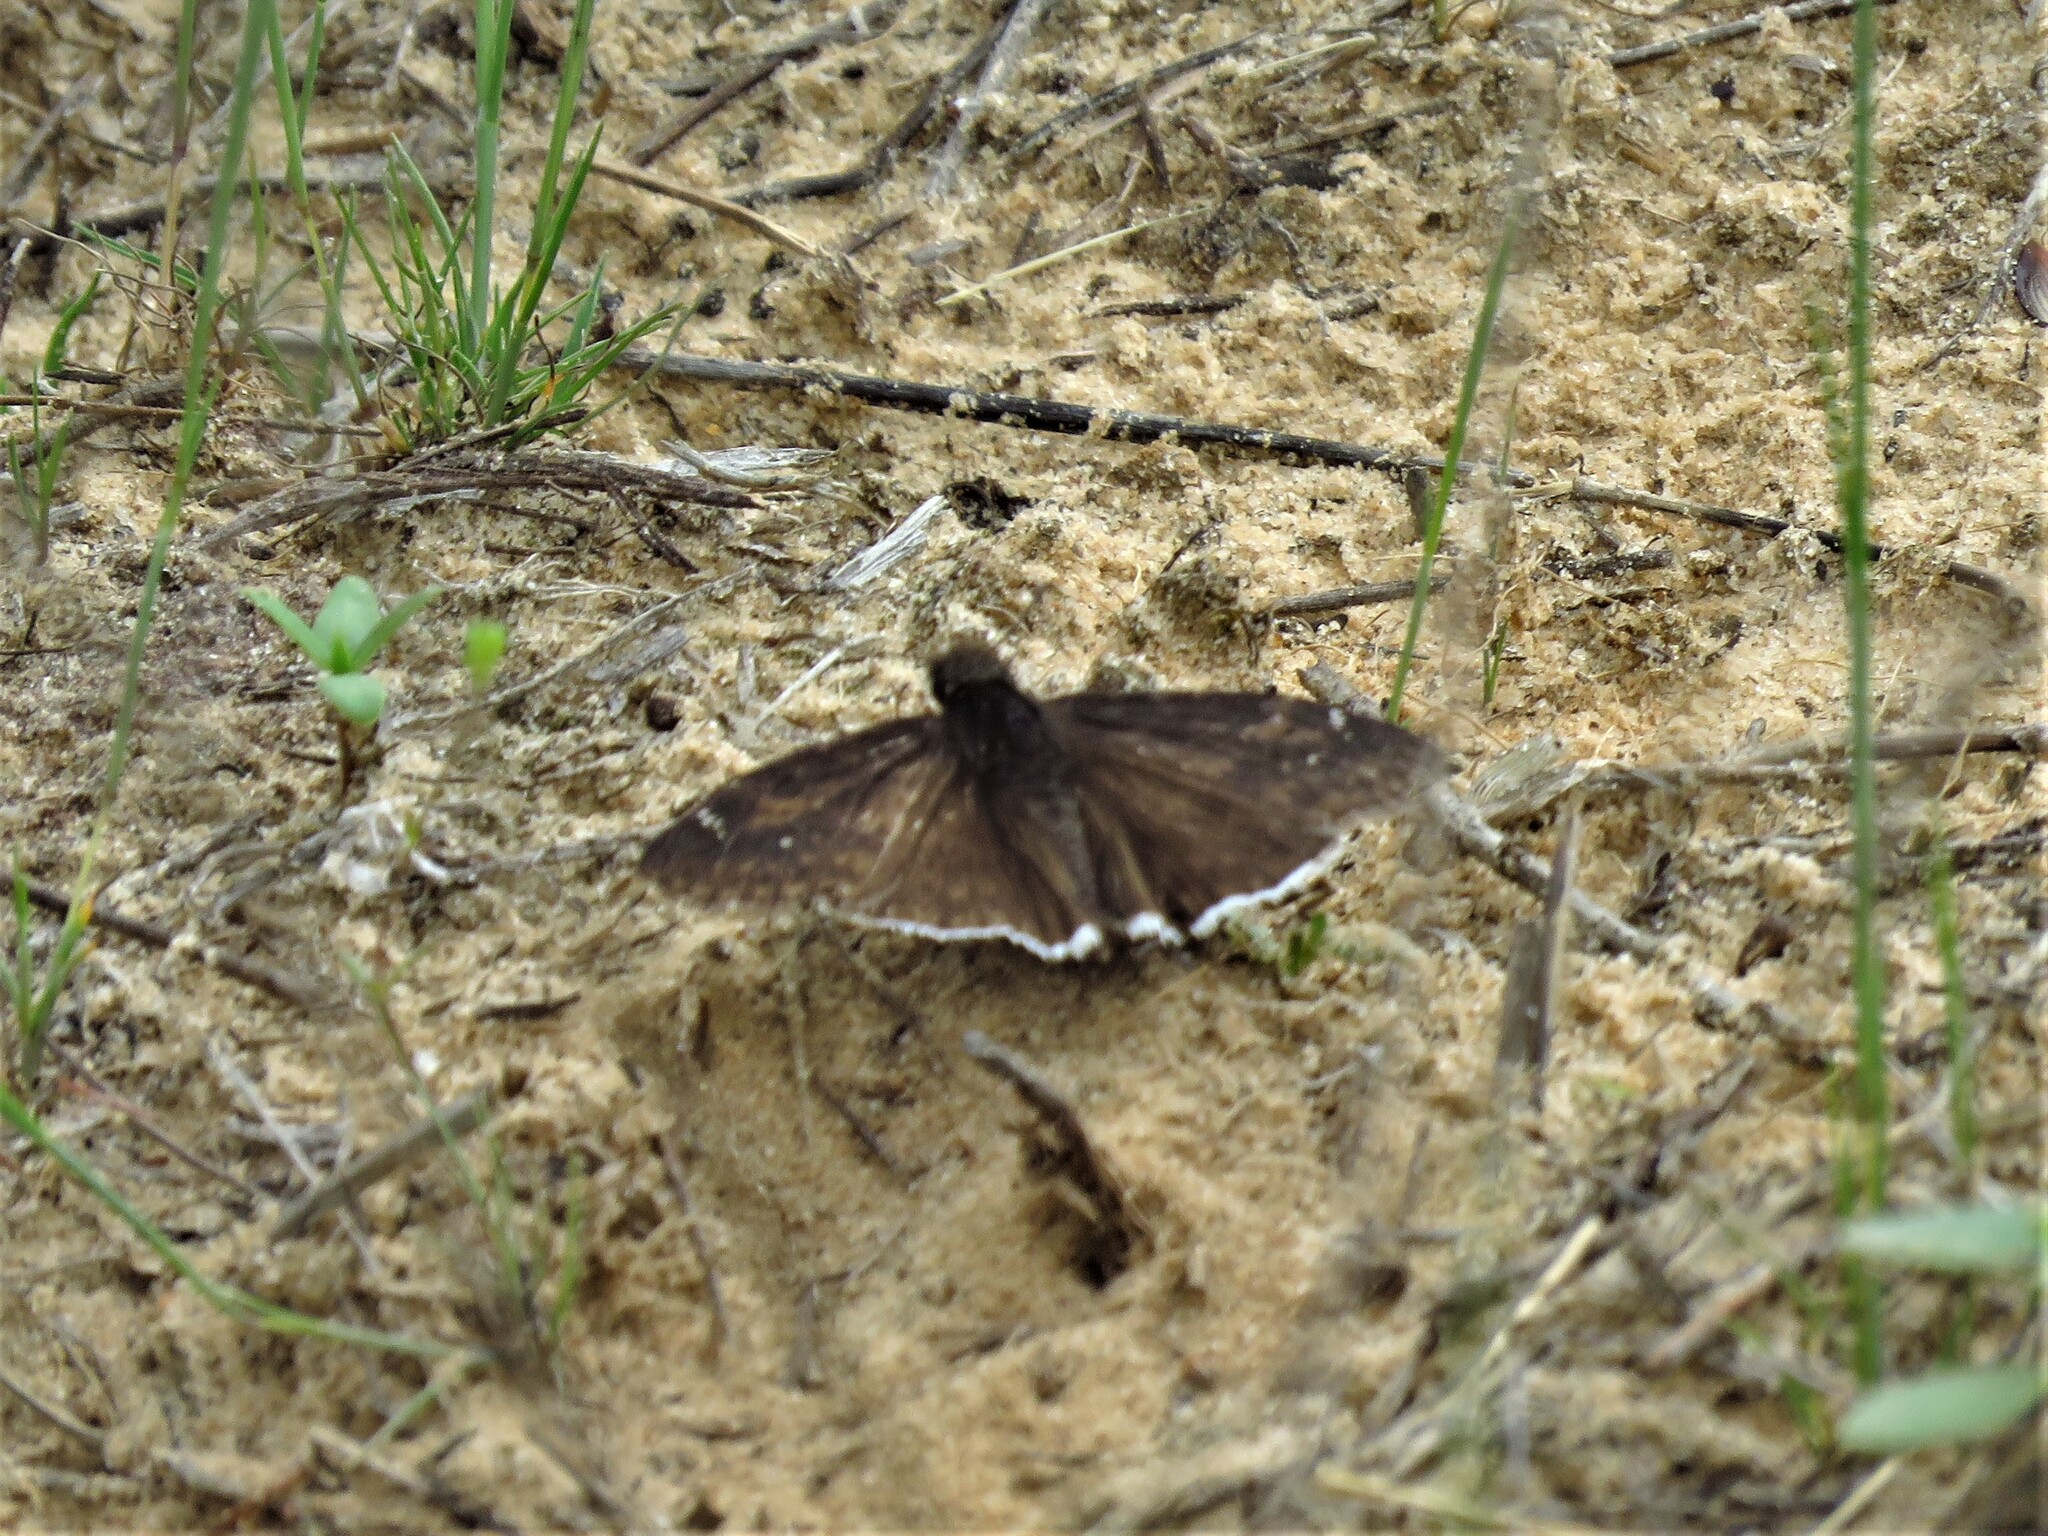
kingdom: Animalia
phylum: Arthropoda
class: Insecta
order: Lepidoptera
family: Hesperiidae
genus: Erynnis
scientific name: Erynnis funeralis
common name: Funereal duskywing
